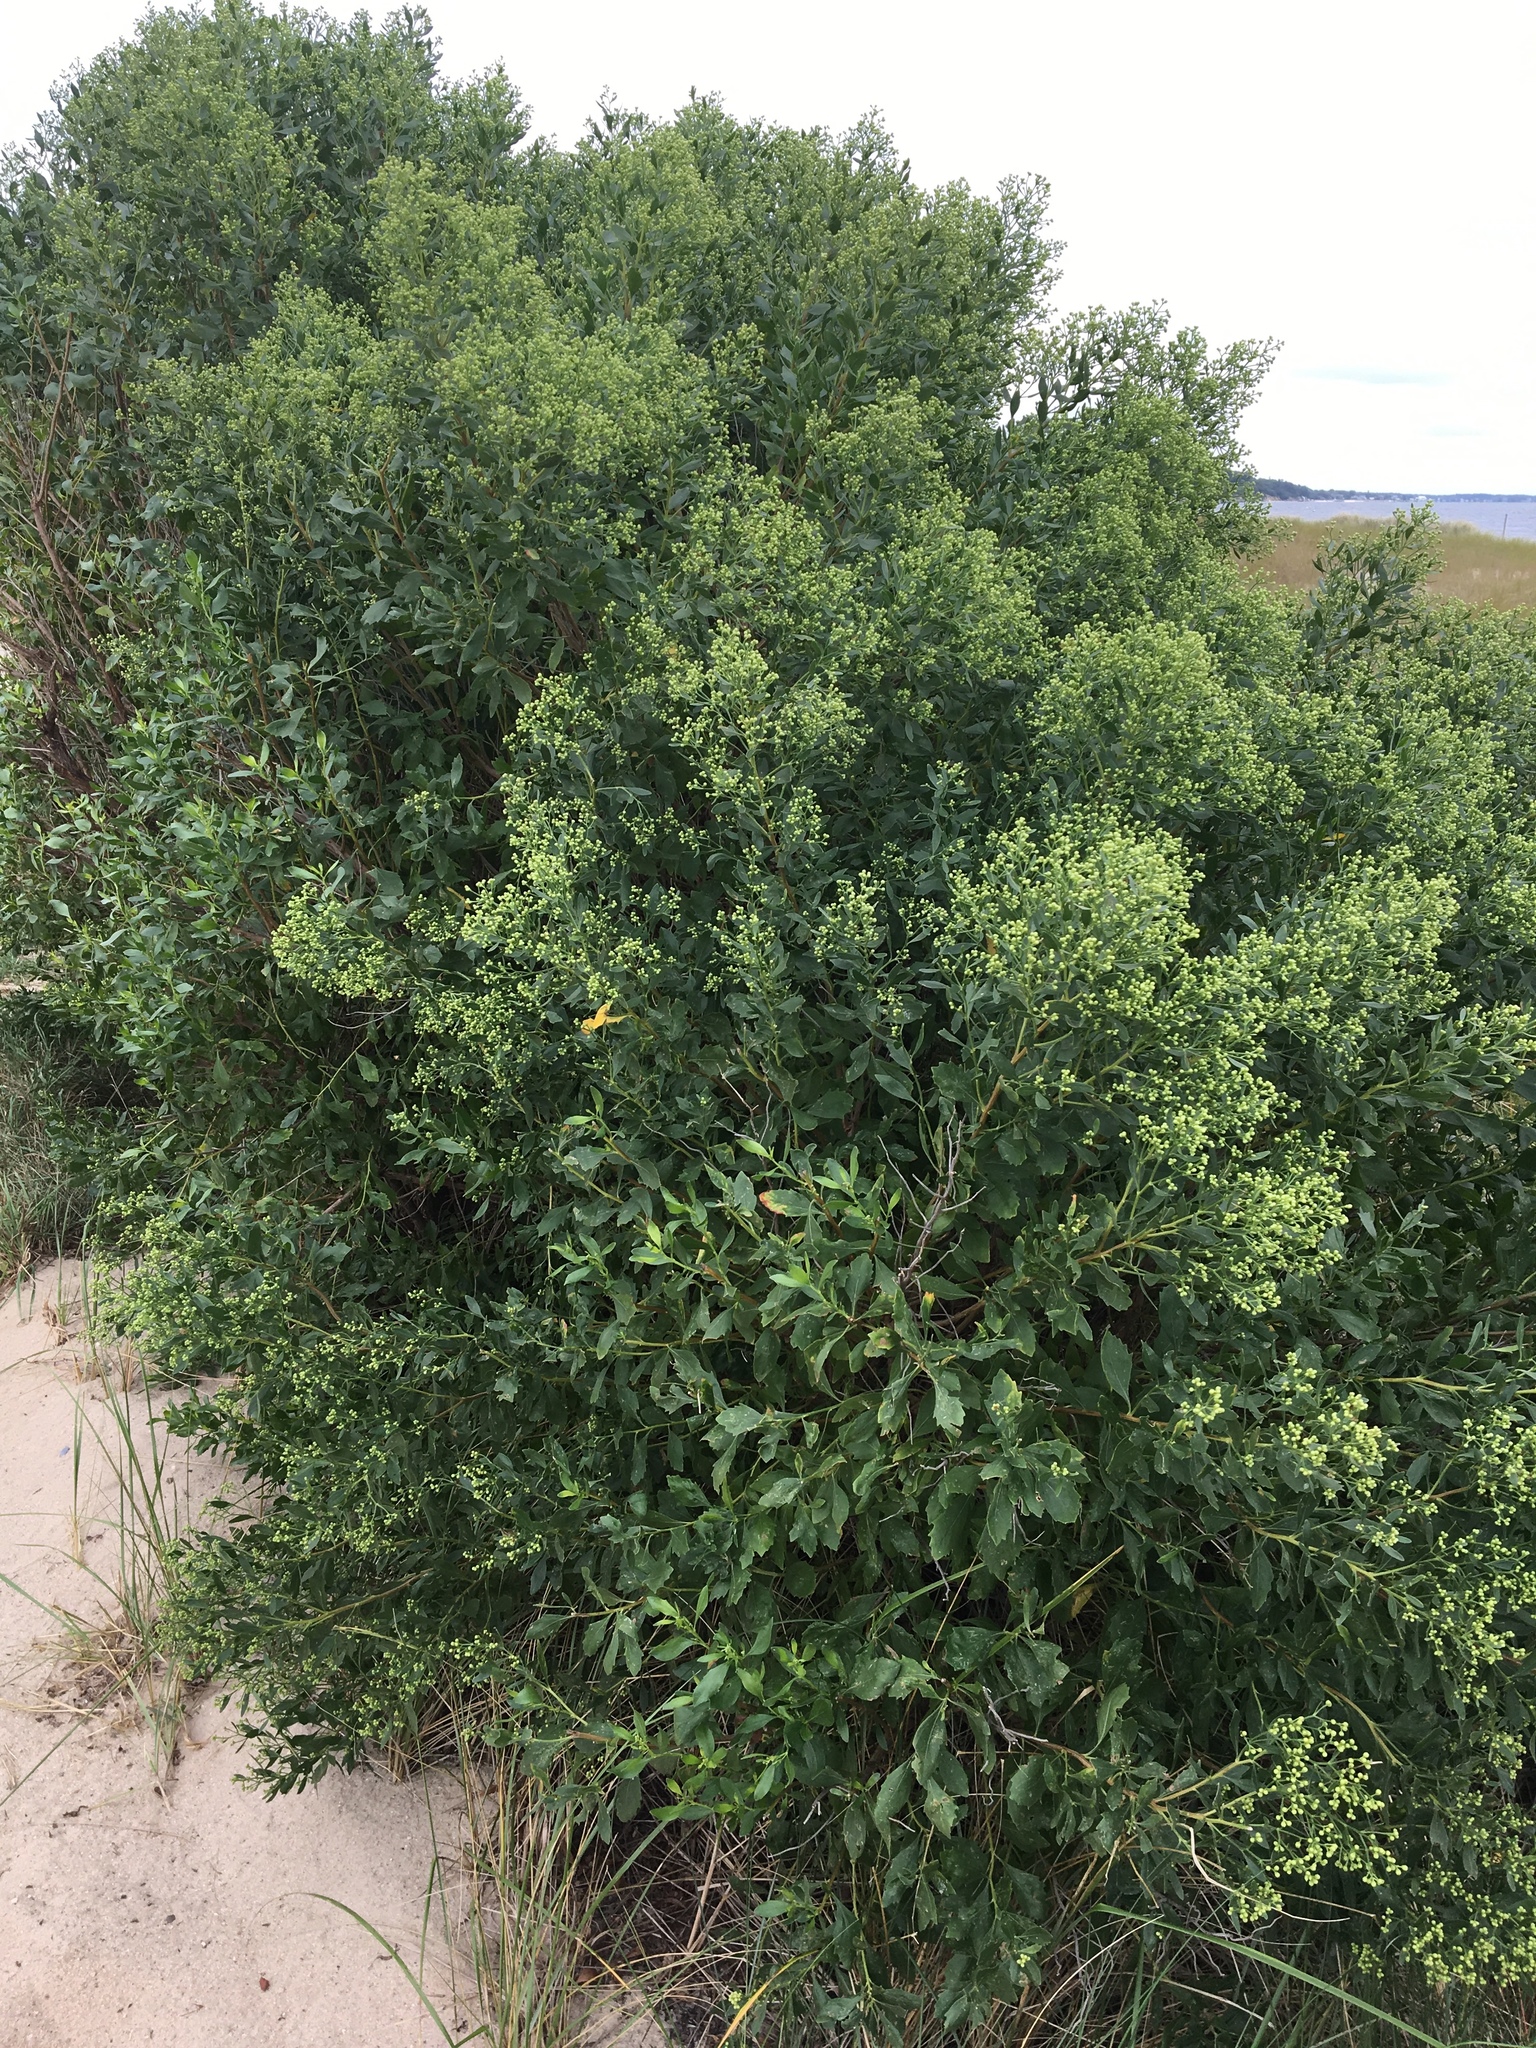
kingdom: Plantae
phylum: Tracheophyta
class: Magnoliopsida
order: Asterales
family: Asteraceae
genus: Baccharis
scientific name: Baccharis halimifolia
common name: Eastern baccharis
